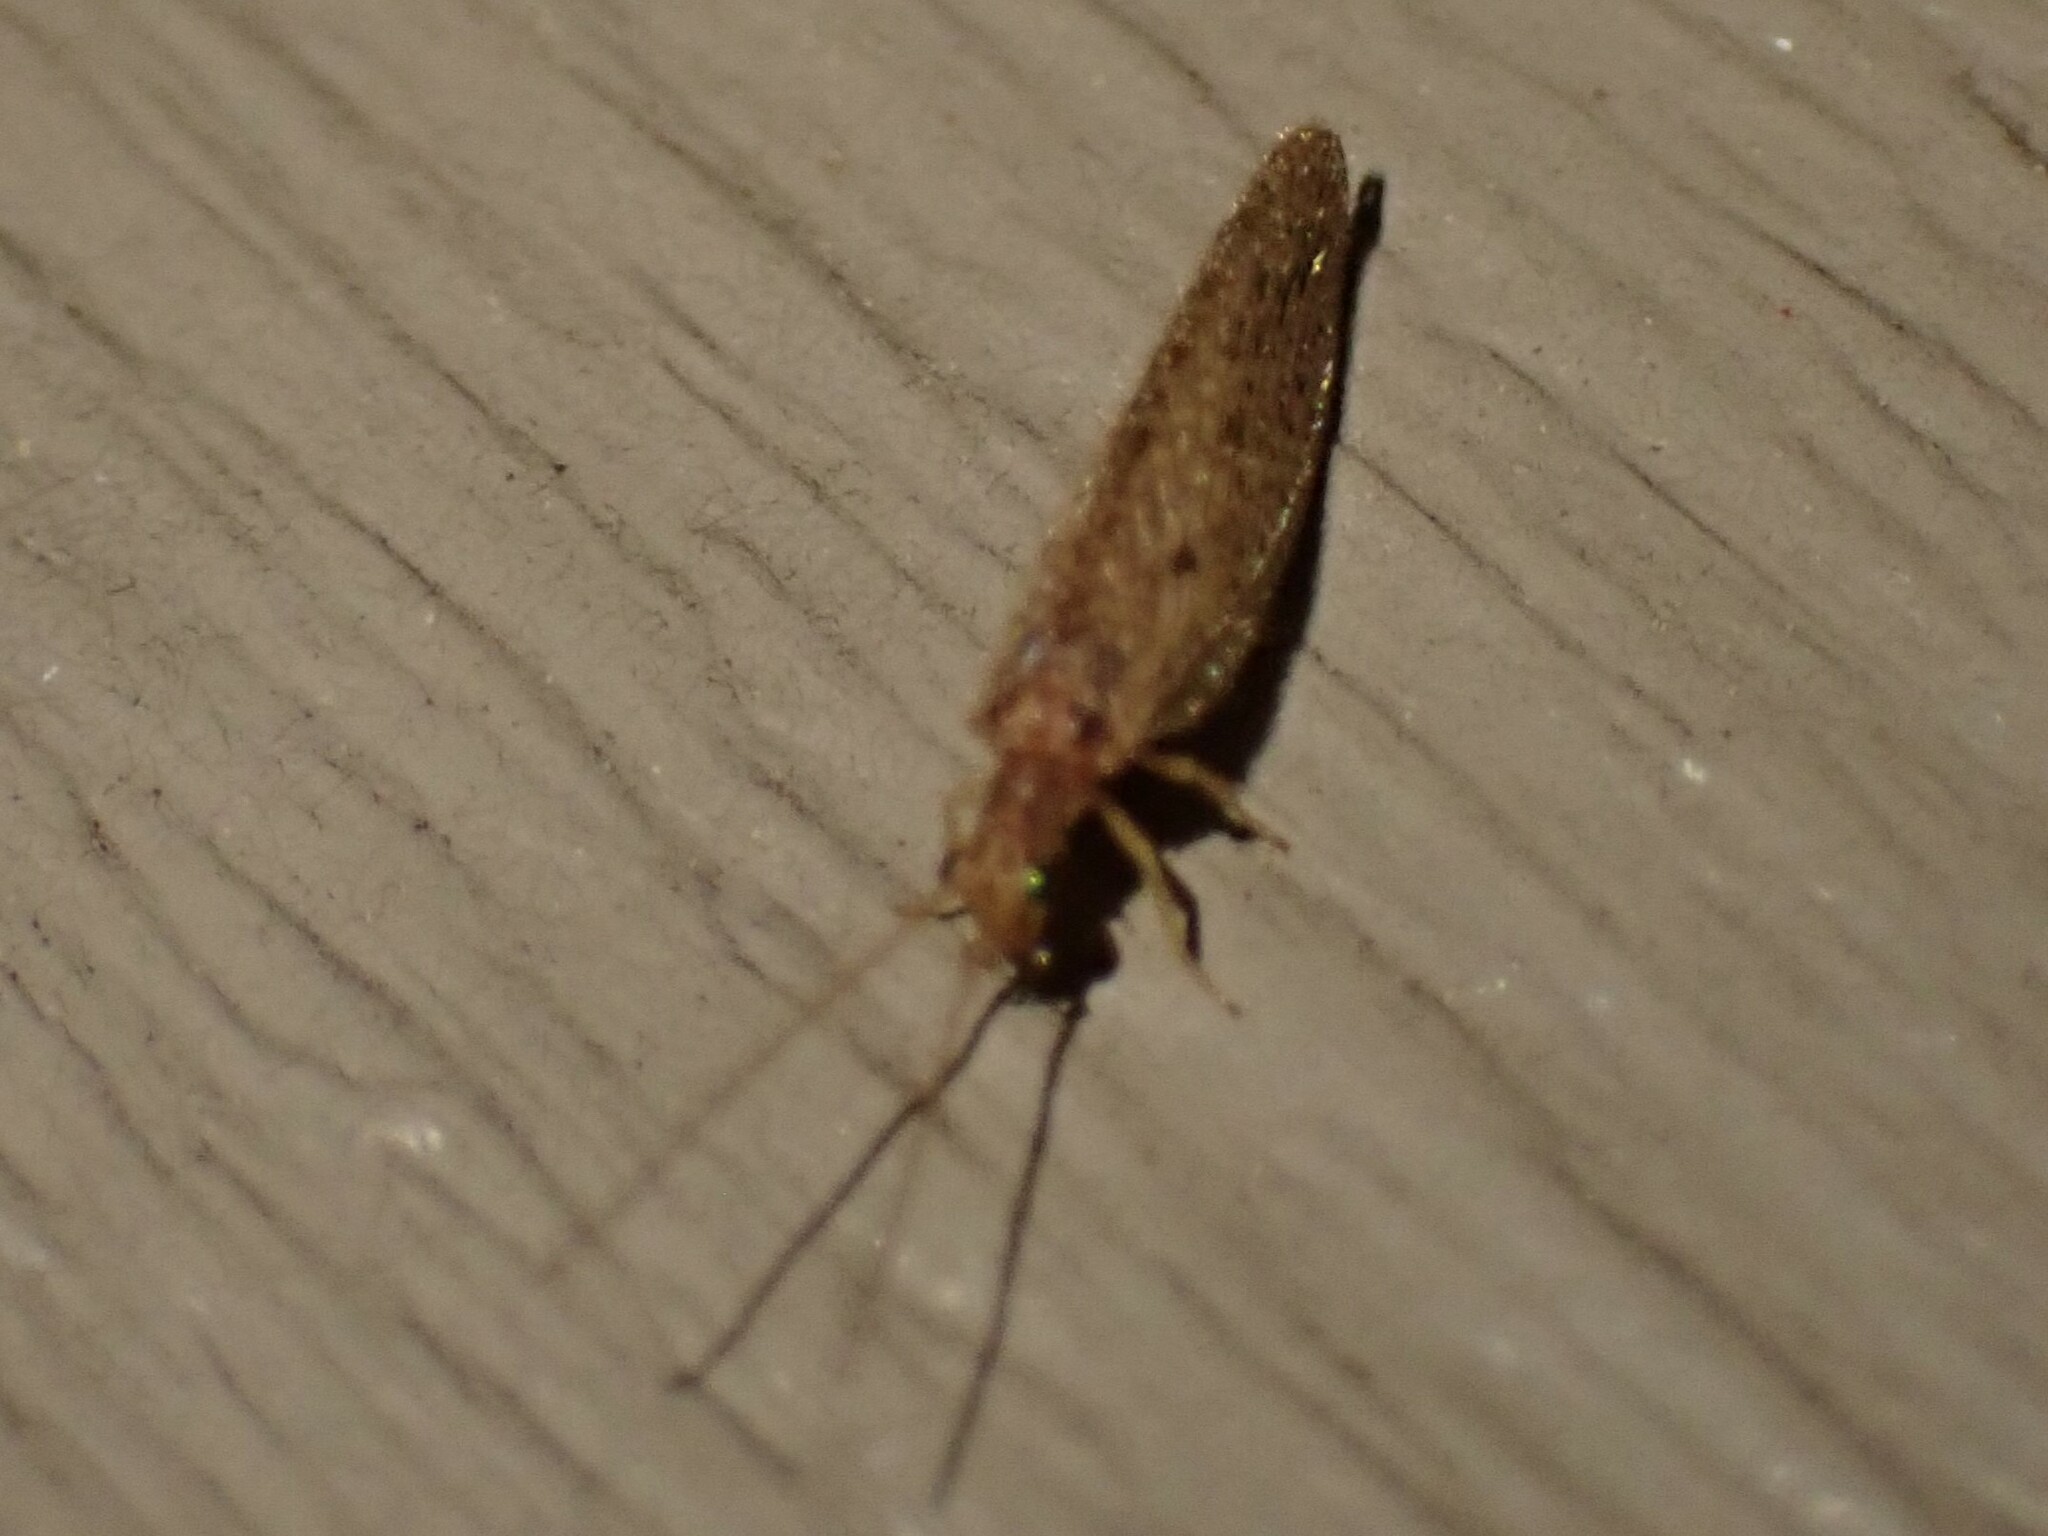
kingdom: Animalia
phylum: Arthropoda
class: Insecta
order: Neuroptera
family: Hemerobiidae
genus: Micromus
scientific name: Micromus subanticus
